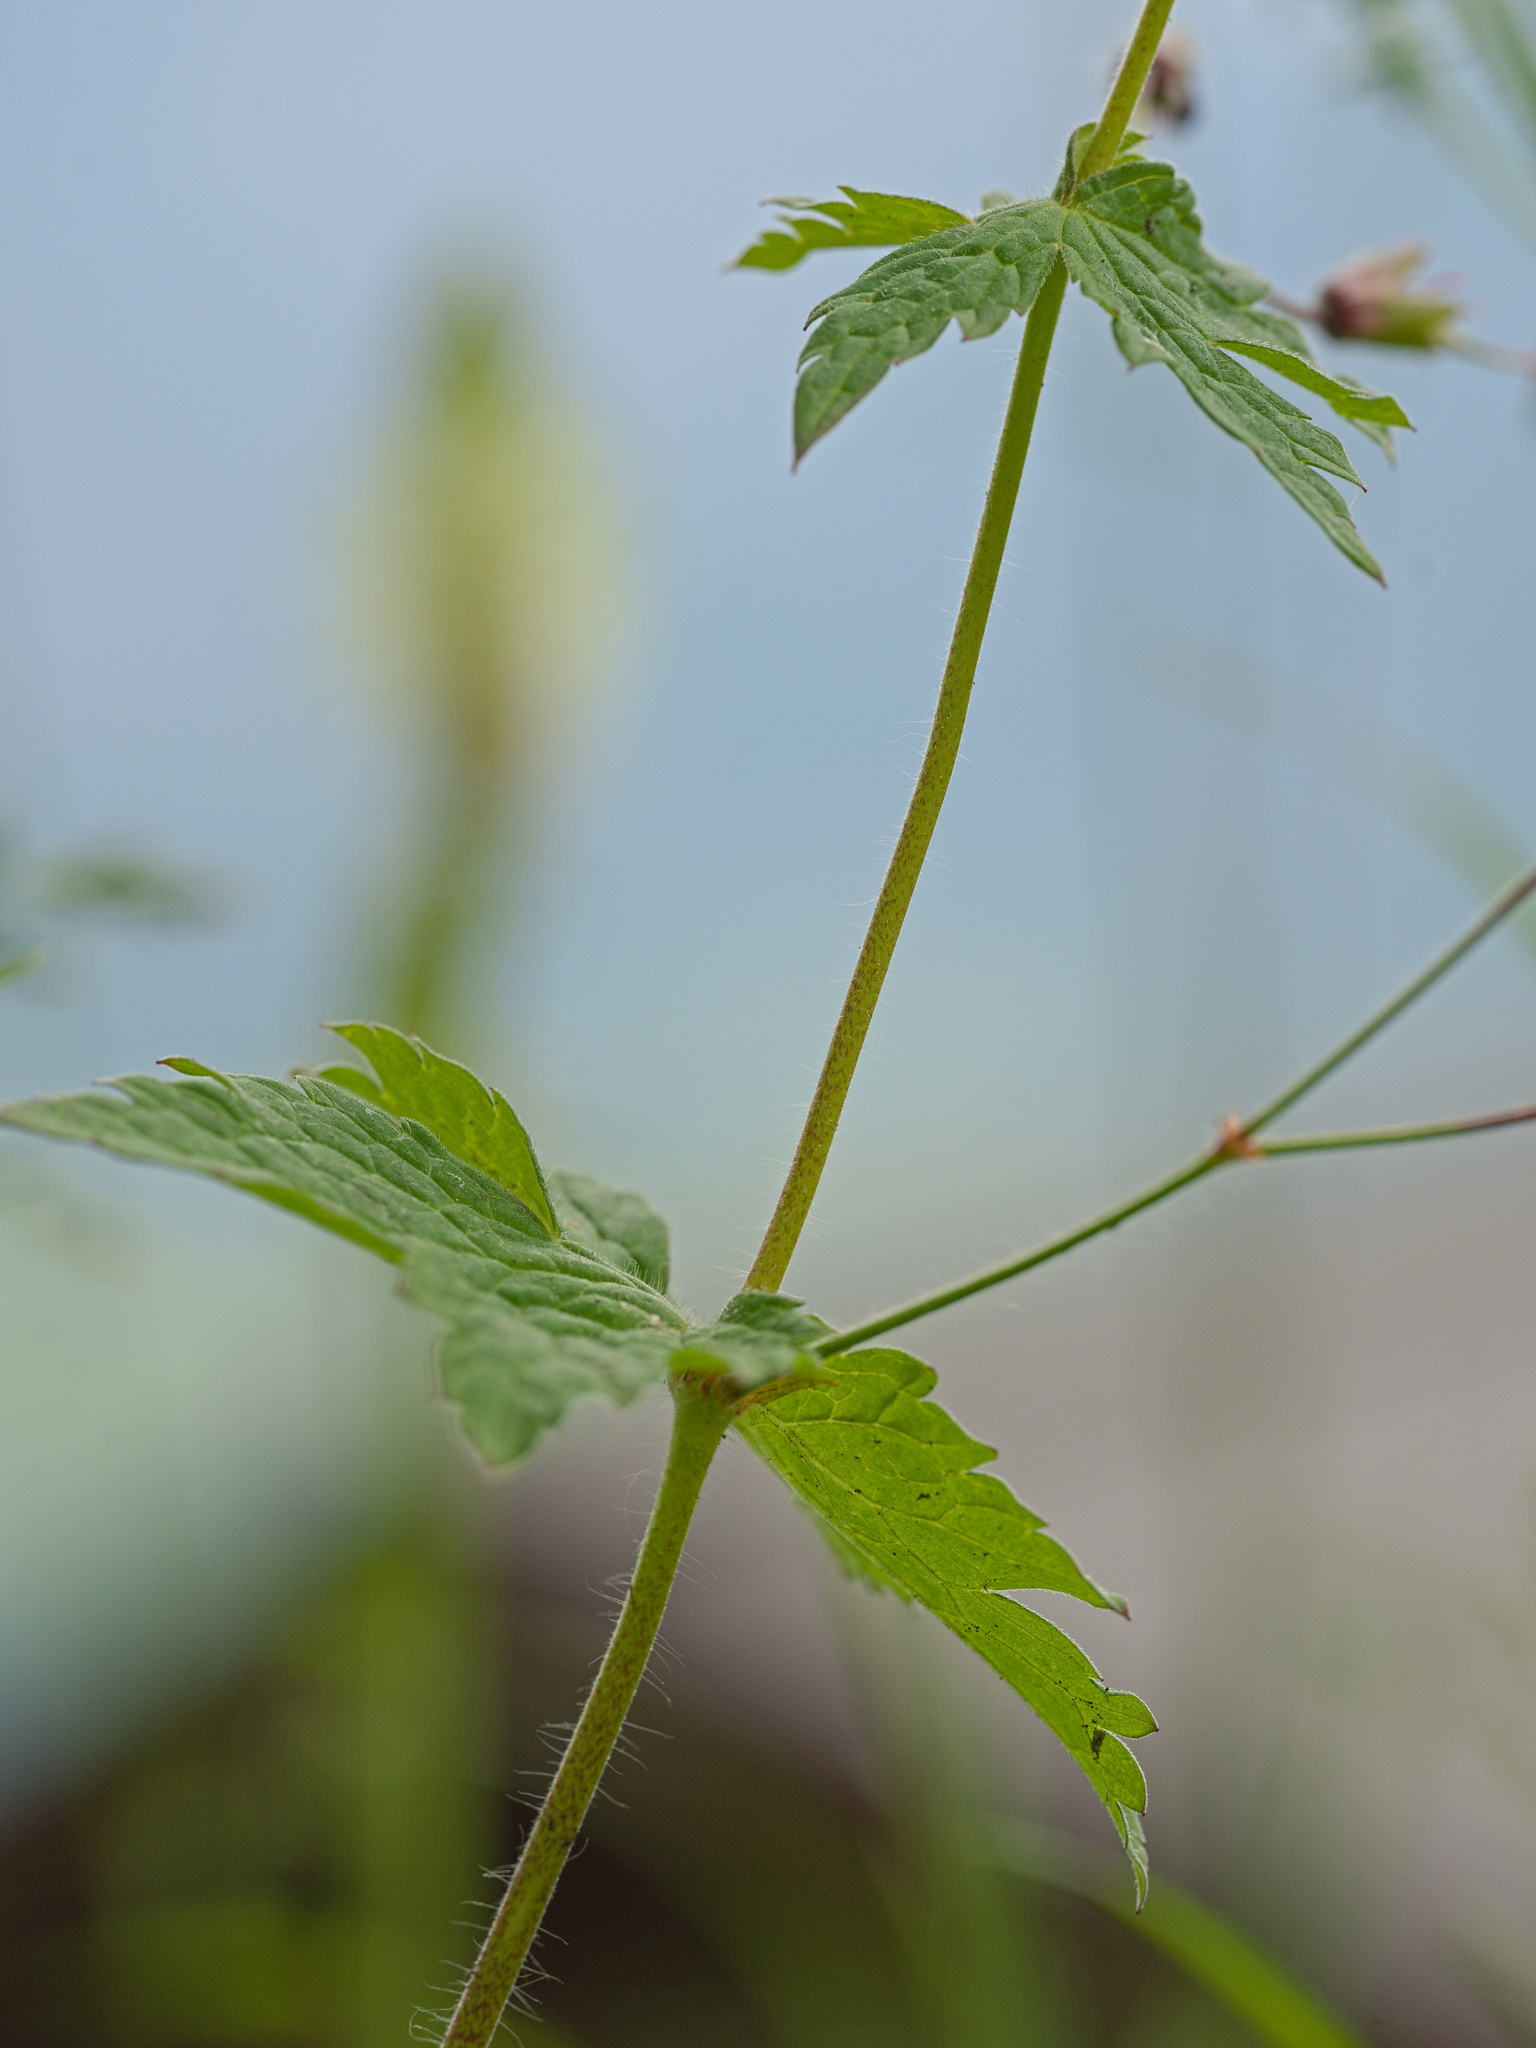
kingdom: Plantae
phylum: Tracheophyta
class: Magnoliopsida
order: Geraniales
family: Geraniaceae
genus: Geranium
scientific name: Geranium phaeum
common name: Dusky crane's-bill
